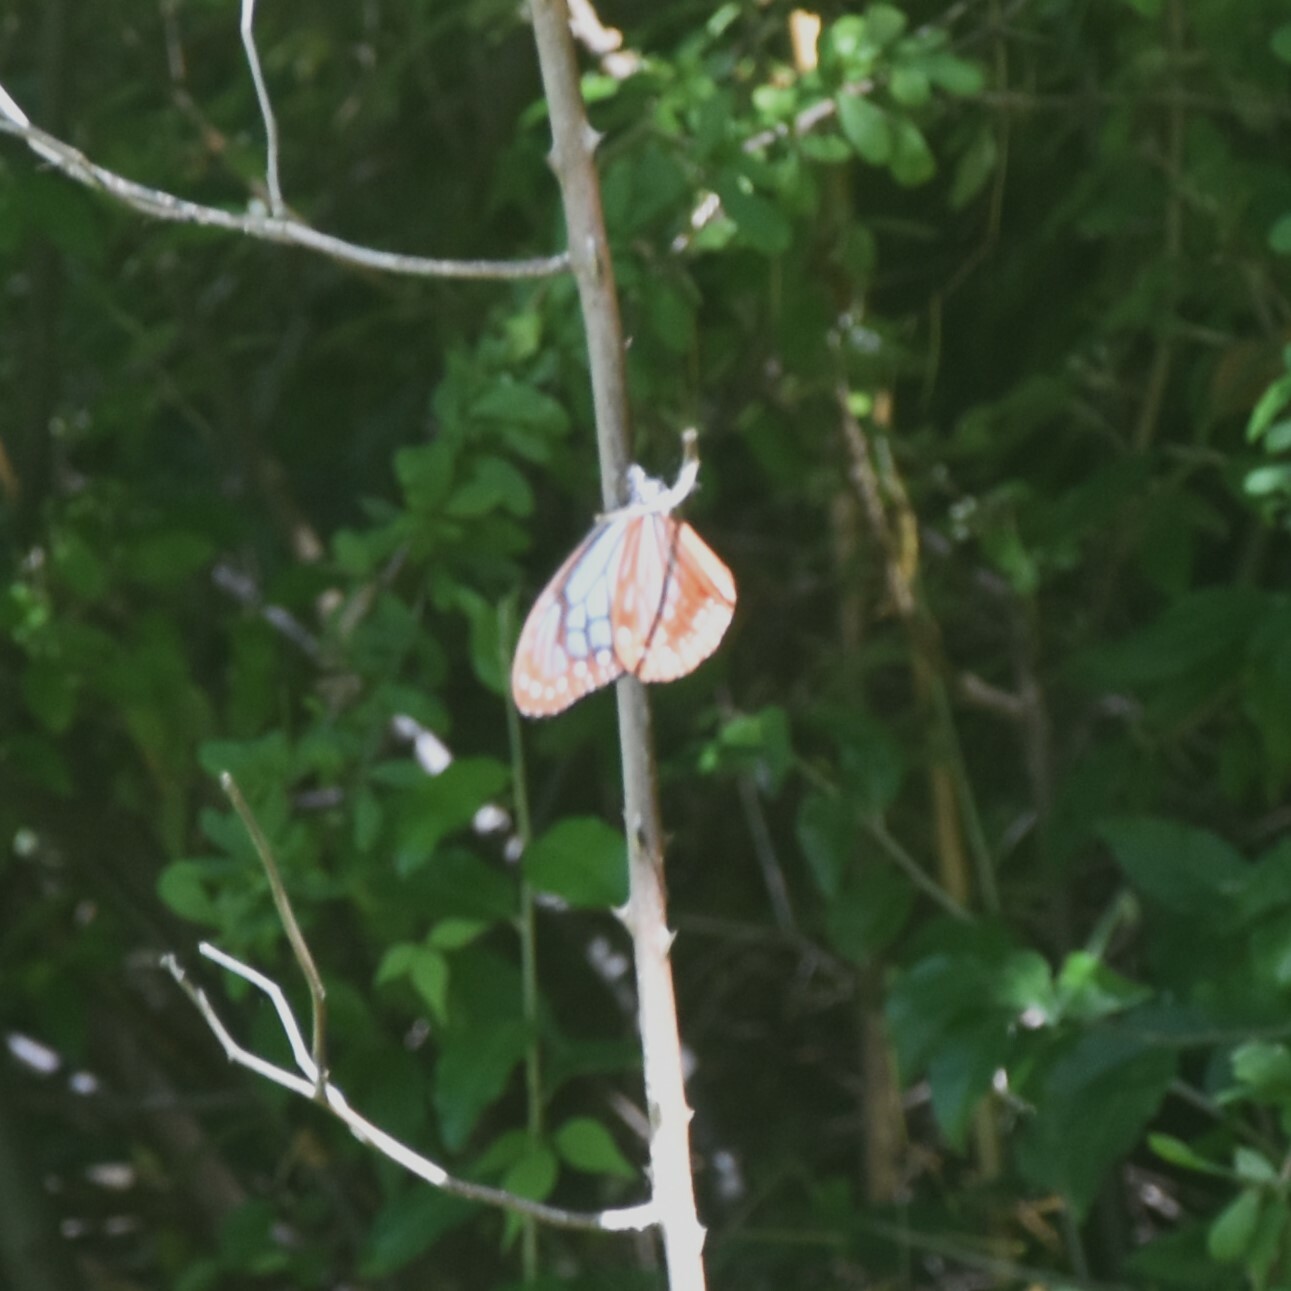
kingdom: Animalia
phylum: Arthropoda
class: Insecta
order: Lepidoptera
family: Nymphalidae
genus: Parantica
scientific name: Parantica sita
